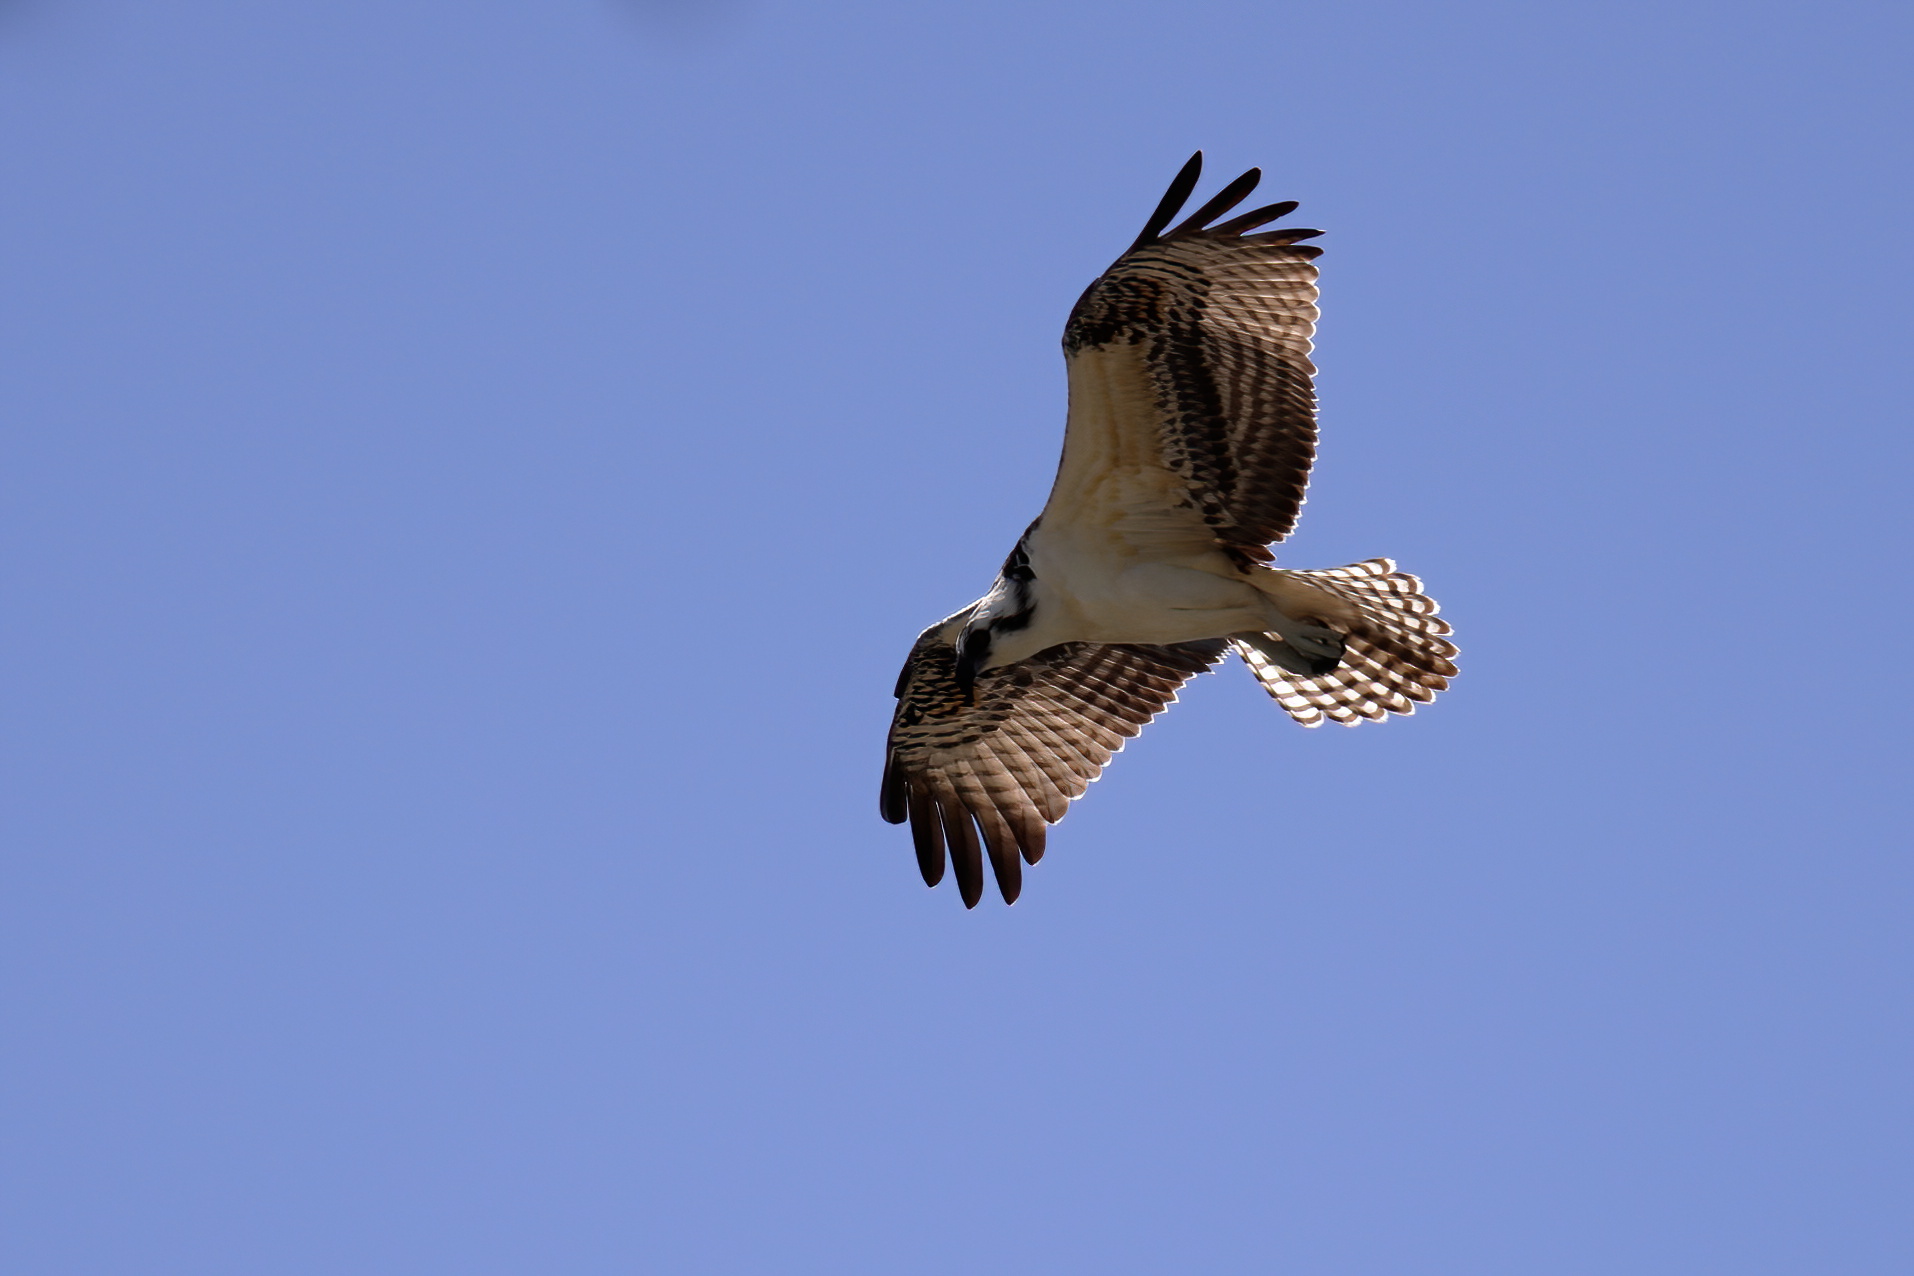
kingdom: Animalia
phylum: Chordata
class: Aves
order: Accipitriformes
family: Pandionidae
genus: Pandion
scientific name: Pandion haliaetus
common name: Osprey
